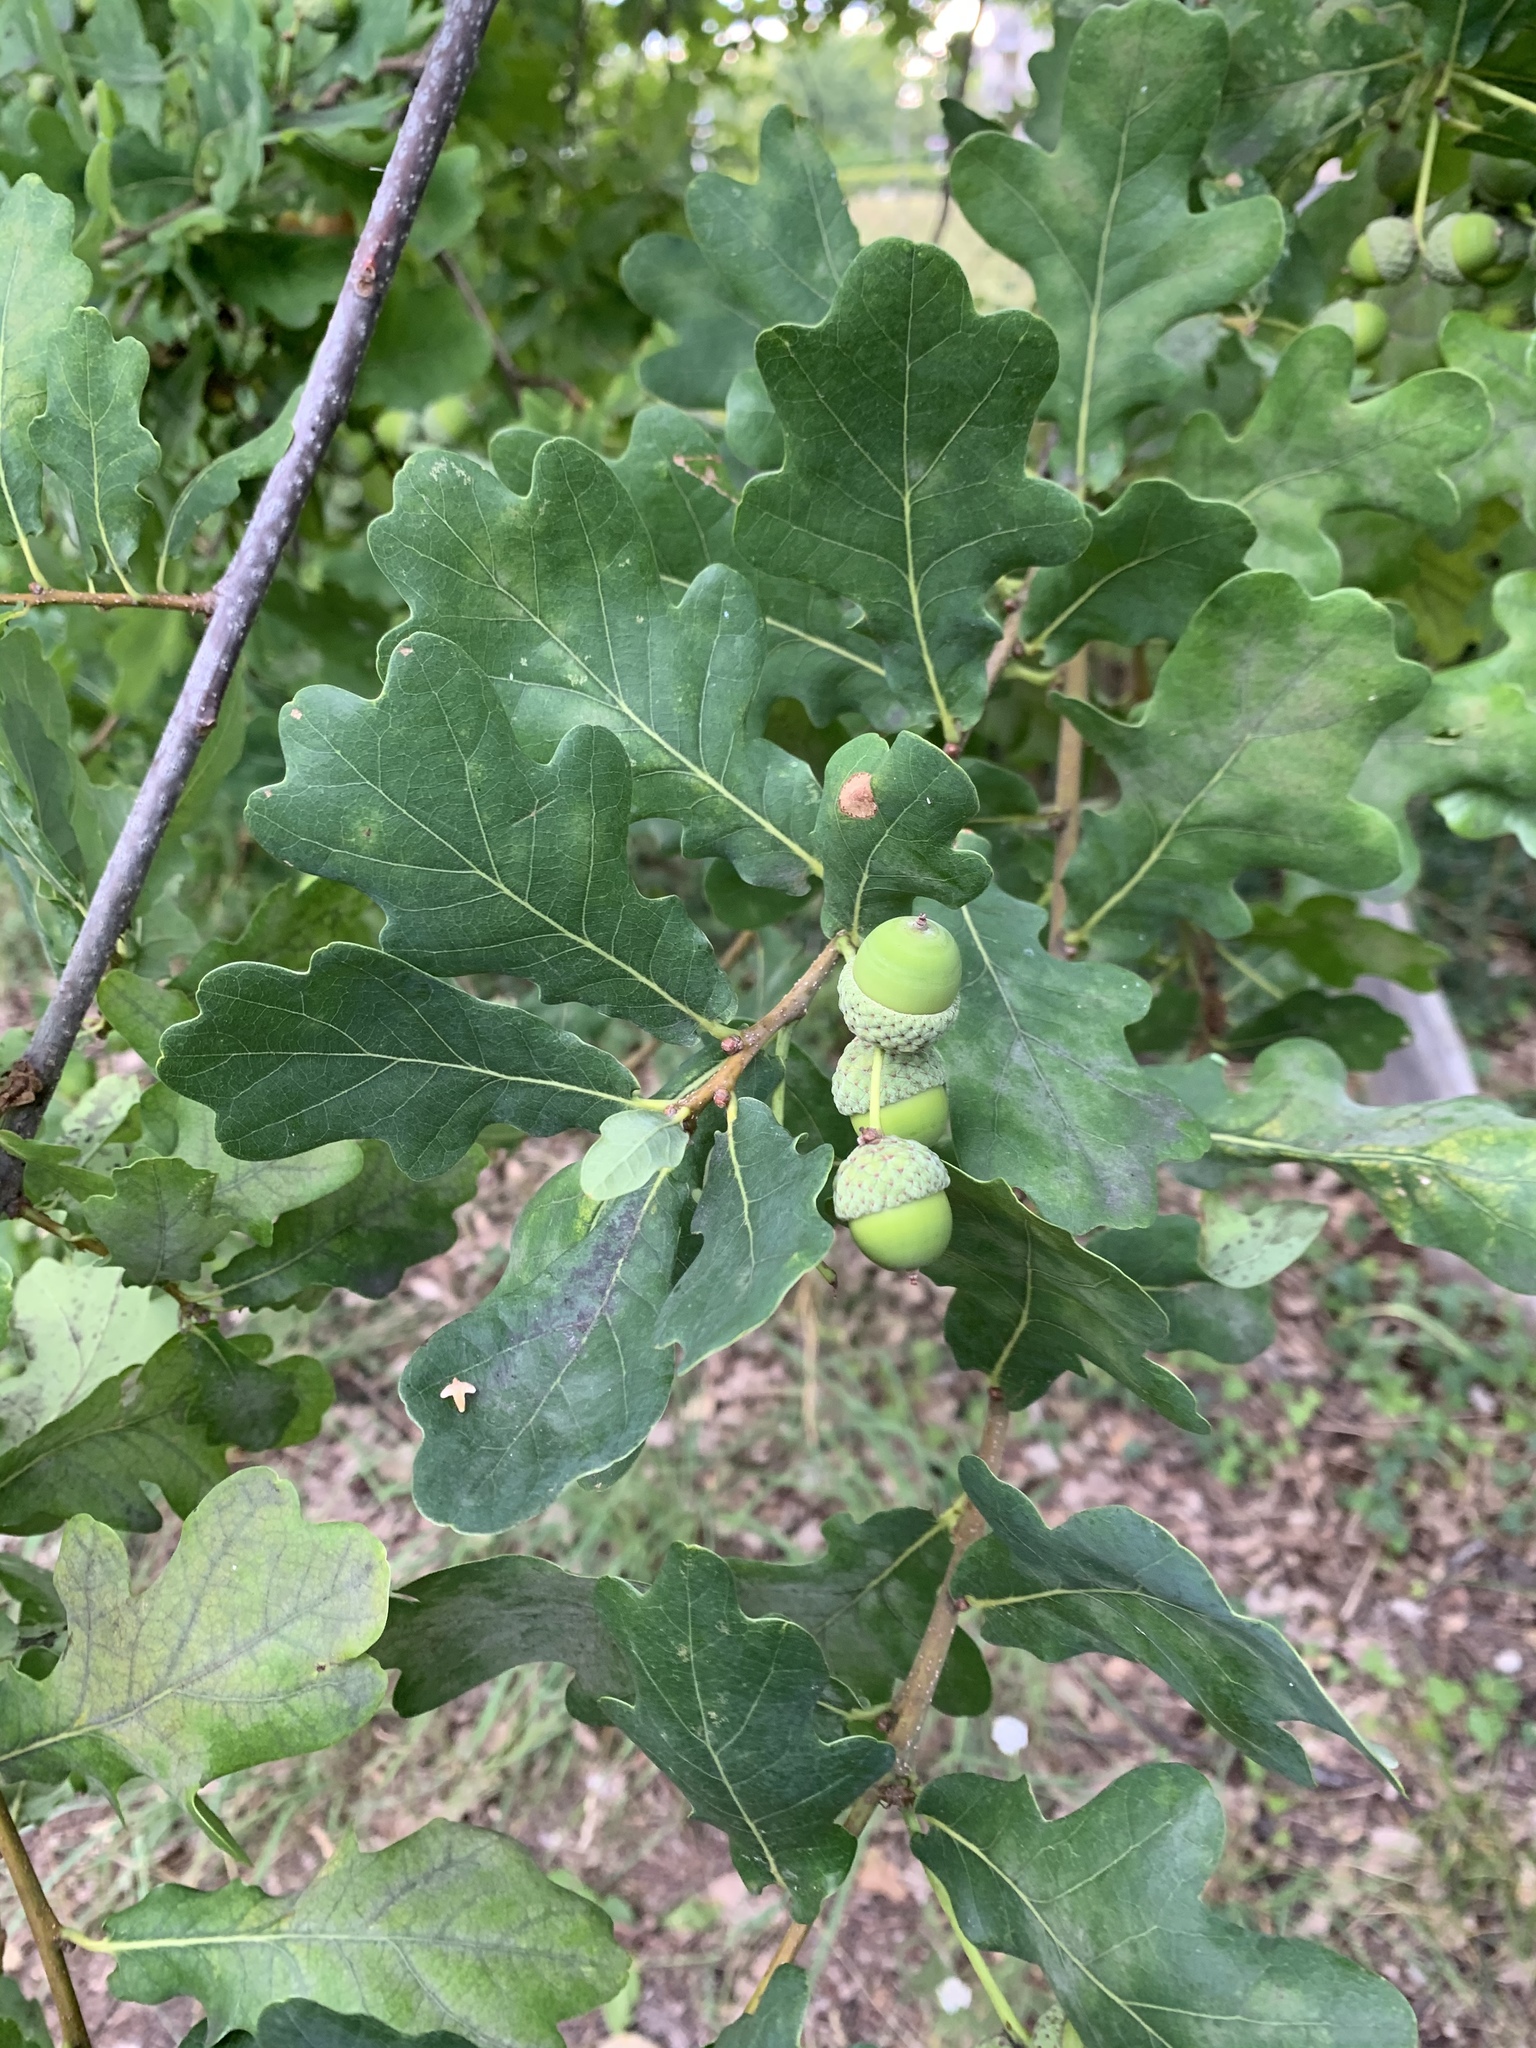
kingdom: Plantae
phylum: Tracheophyta
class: Magnoliopsida
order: Fagales
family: Fagaceae
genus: Quercus
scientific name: Quercus robur
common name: Pedunculate oak
